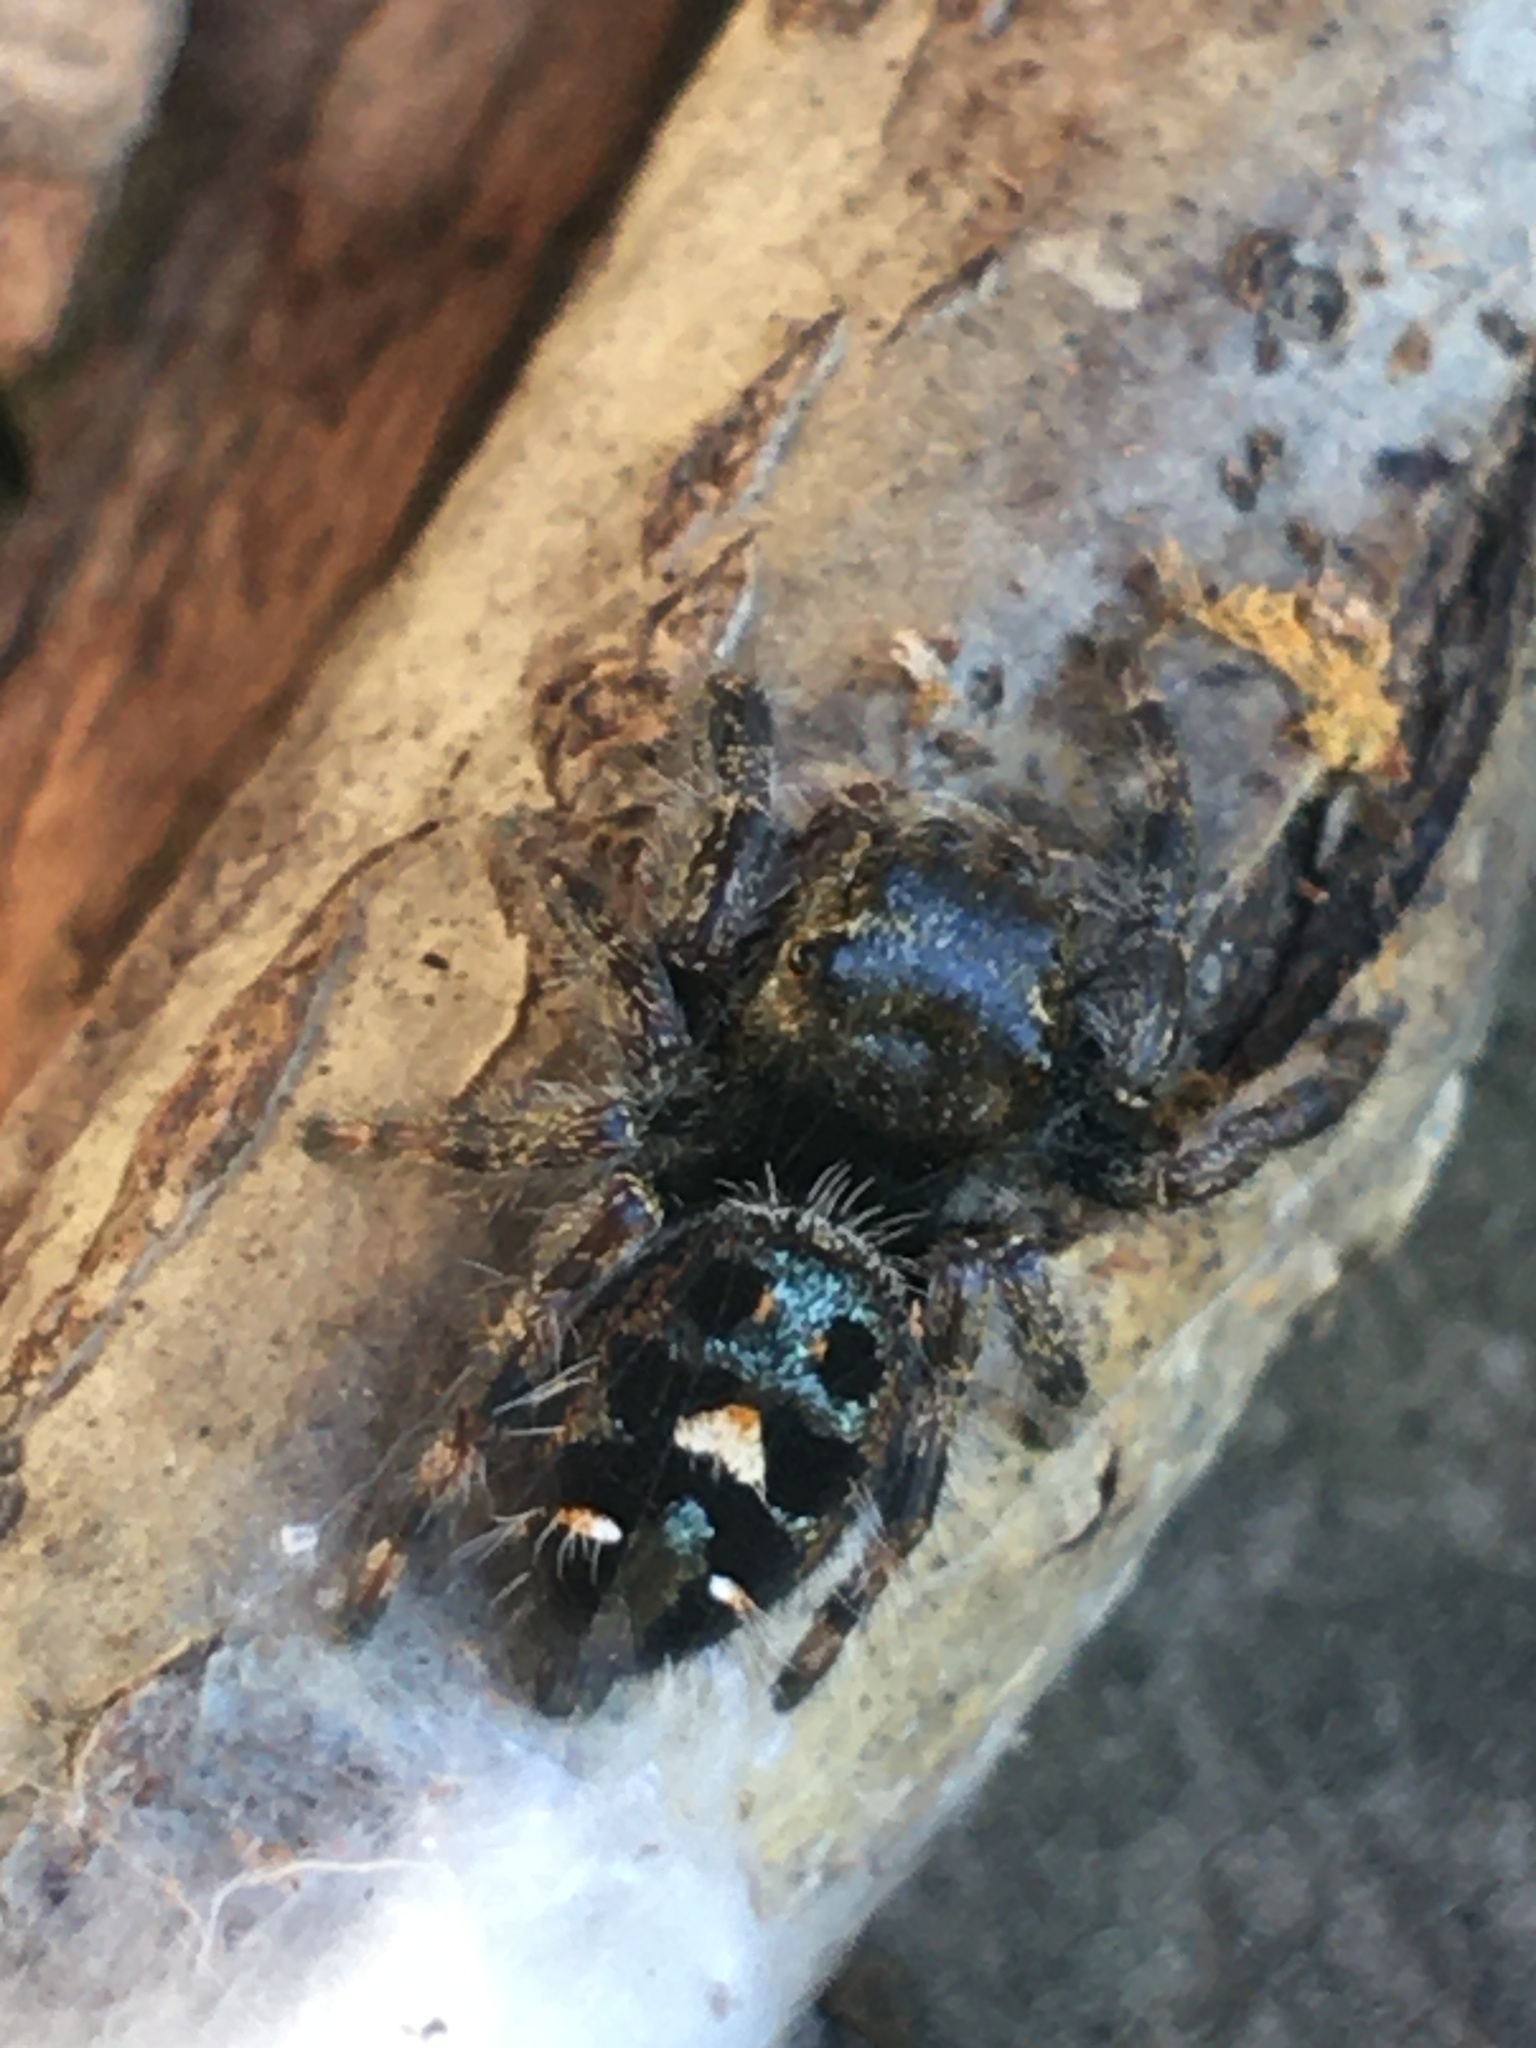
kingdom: Animalia
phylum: Arthropoda
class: Arachnida
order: Araneae
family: Salticidae
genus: Phidippus
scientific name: Phidippus audax
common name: Bold jumper
